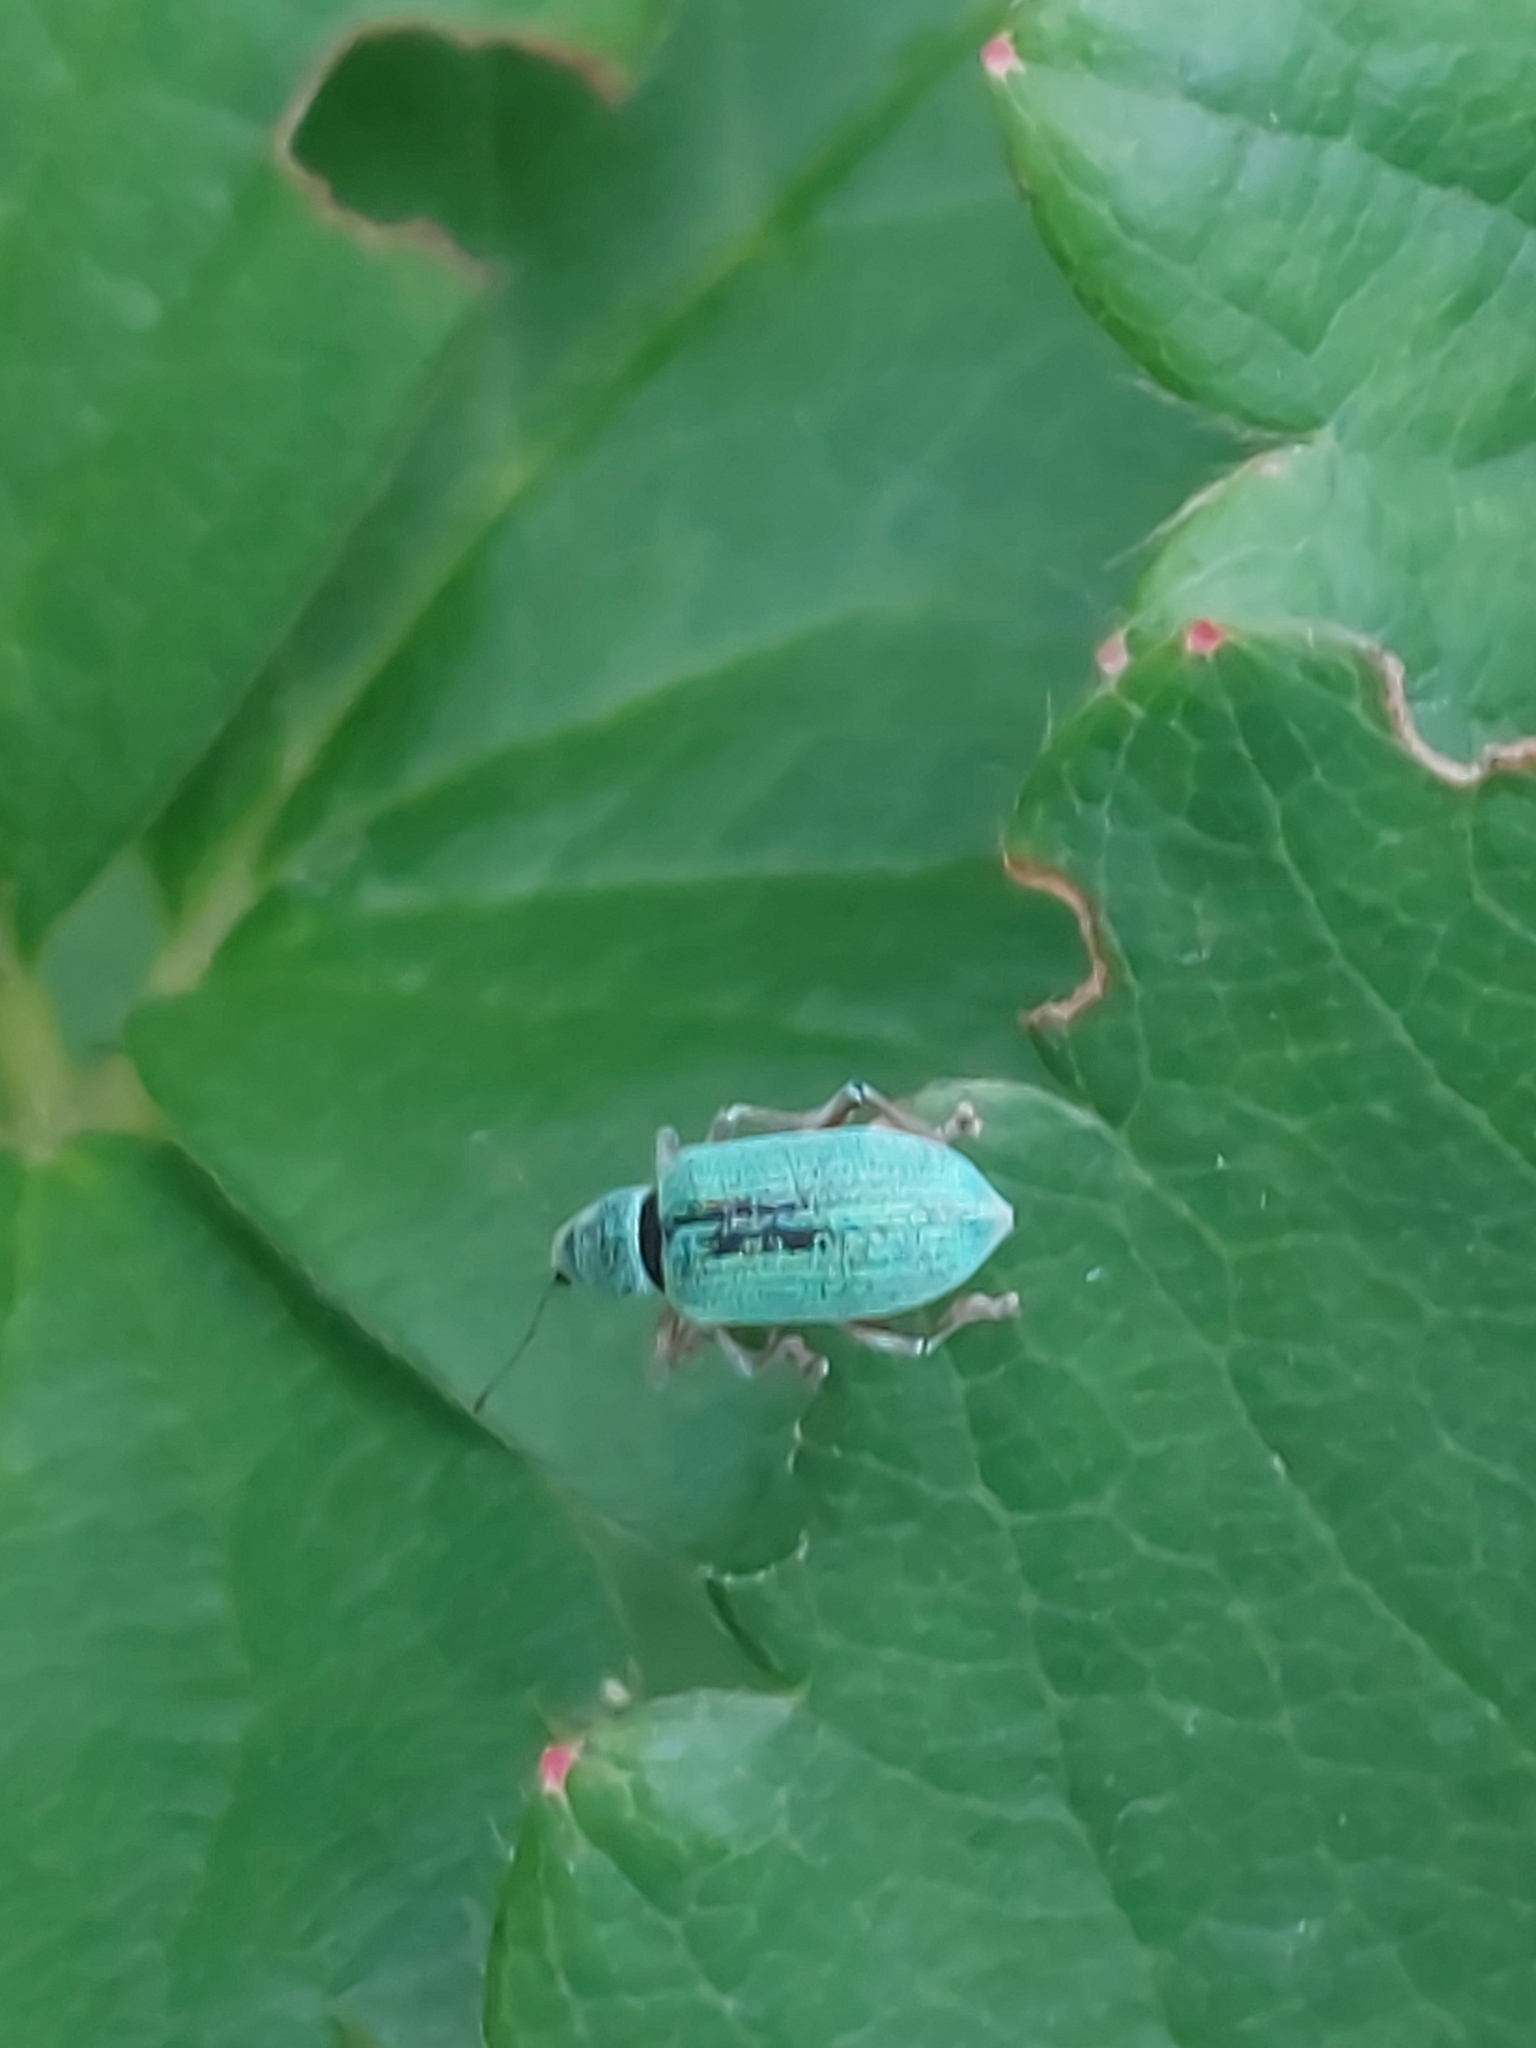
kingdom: Animalia
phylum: Arthropoda
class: Insecta
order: Coleoptera
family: Curculionidae
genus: Polydrusus
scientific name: Polydrusus formosus
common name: Weevil
